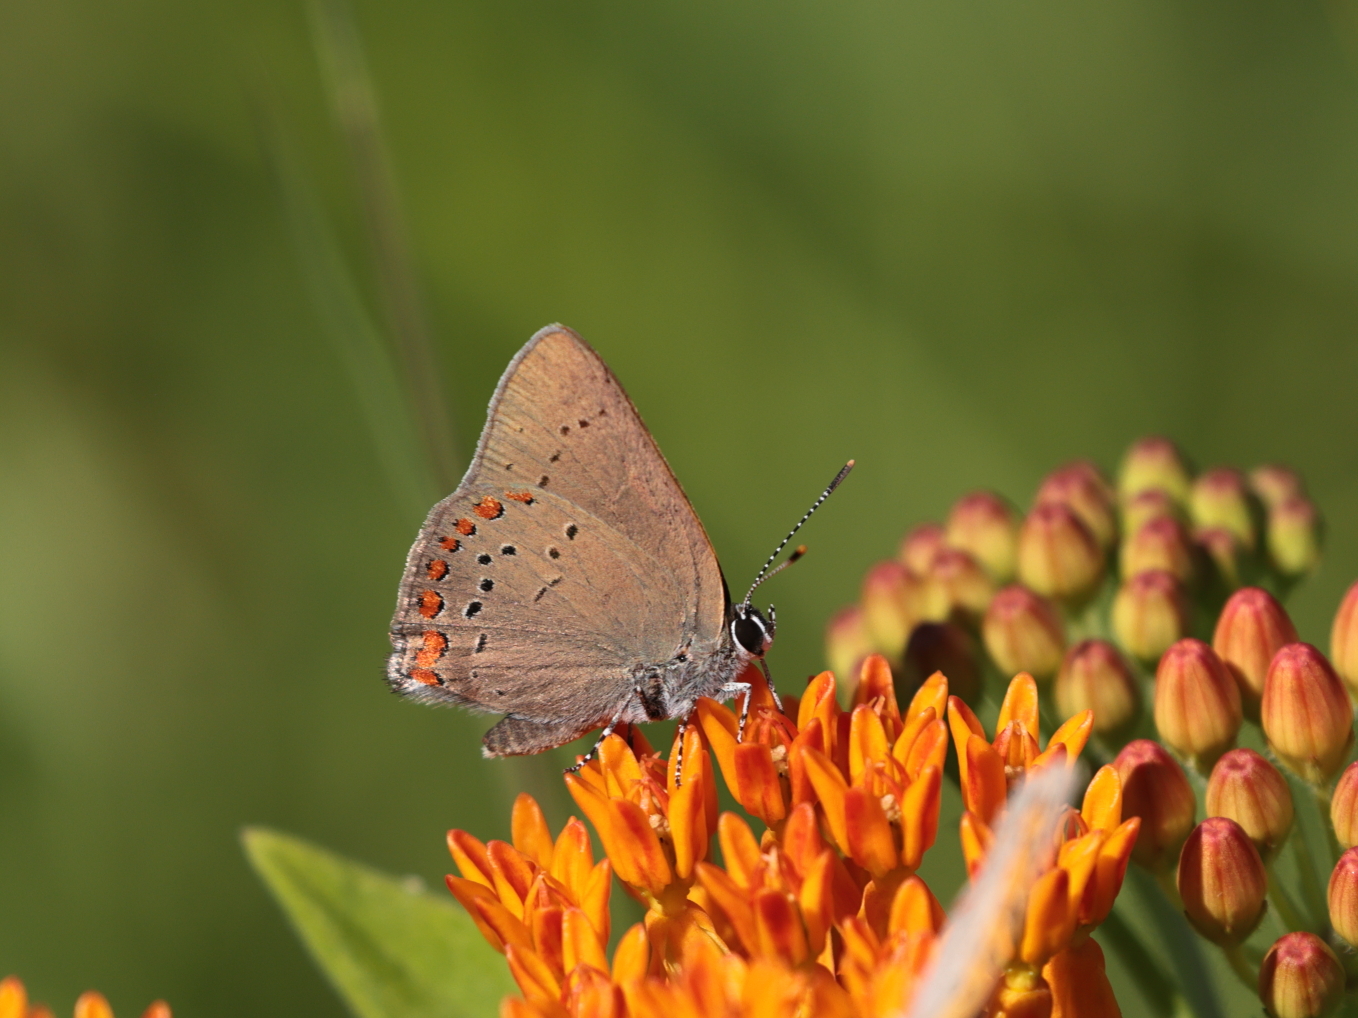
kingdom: Animalia
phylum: Arthropoda
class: Insecta
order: Lepidoptera
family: Lycaenidae
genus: Harkenclenus
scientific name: Harkenclenus titus
